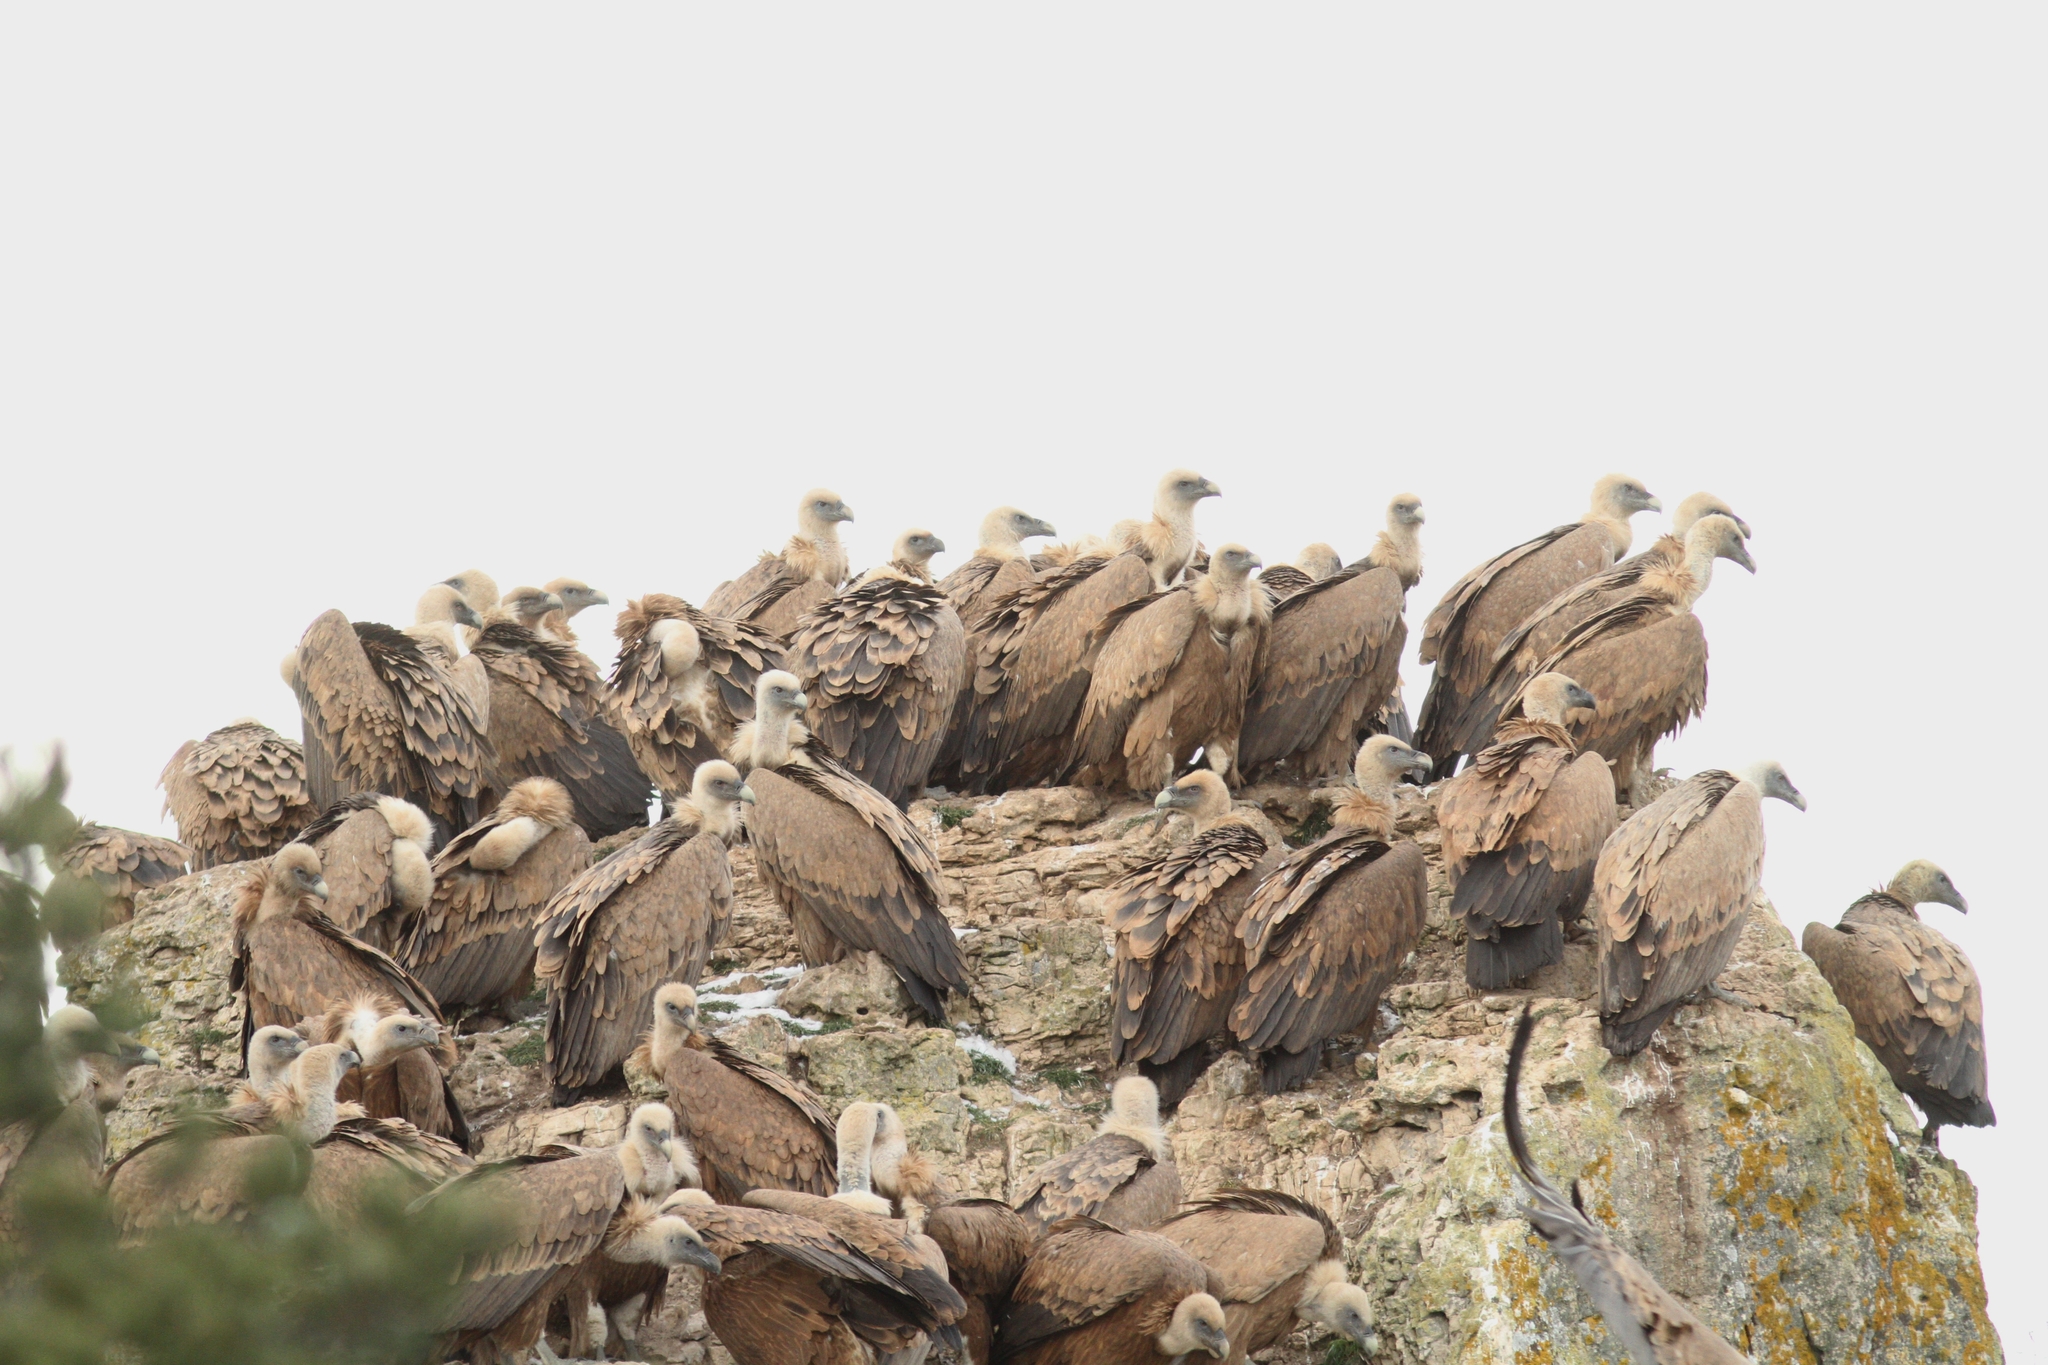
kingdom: Animalia
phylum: Chordata
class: Aves
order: Accipitriformes
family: Accipitridae
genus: Gyps
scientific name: Gyps fulvus
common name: Griffon vulture
